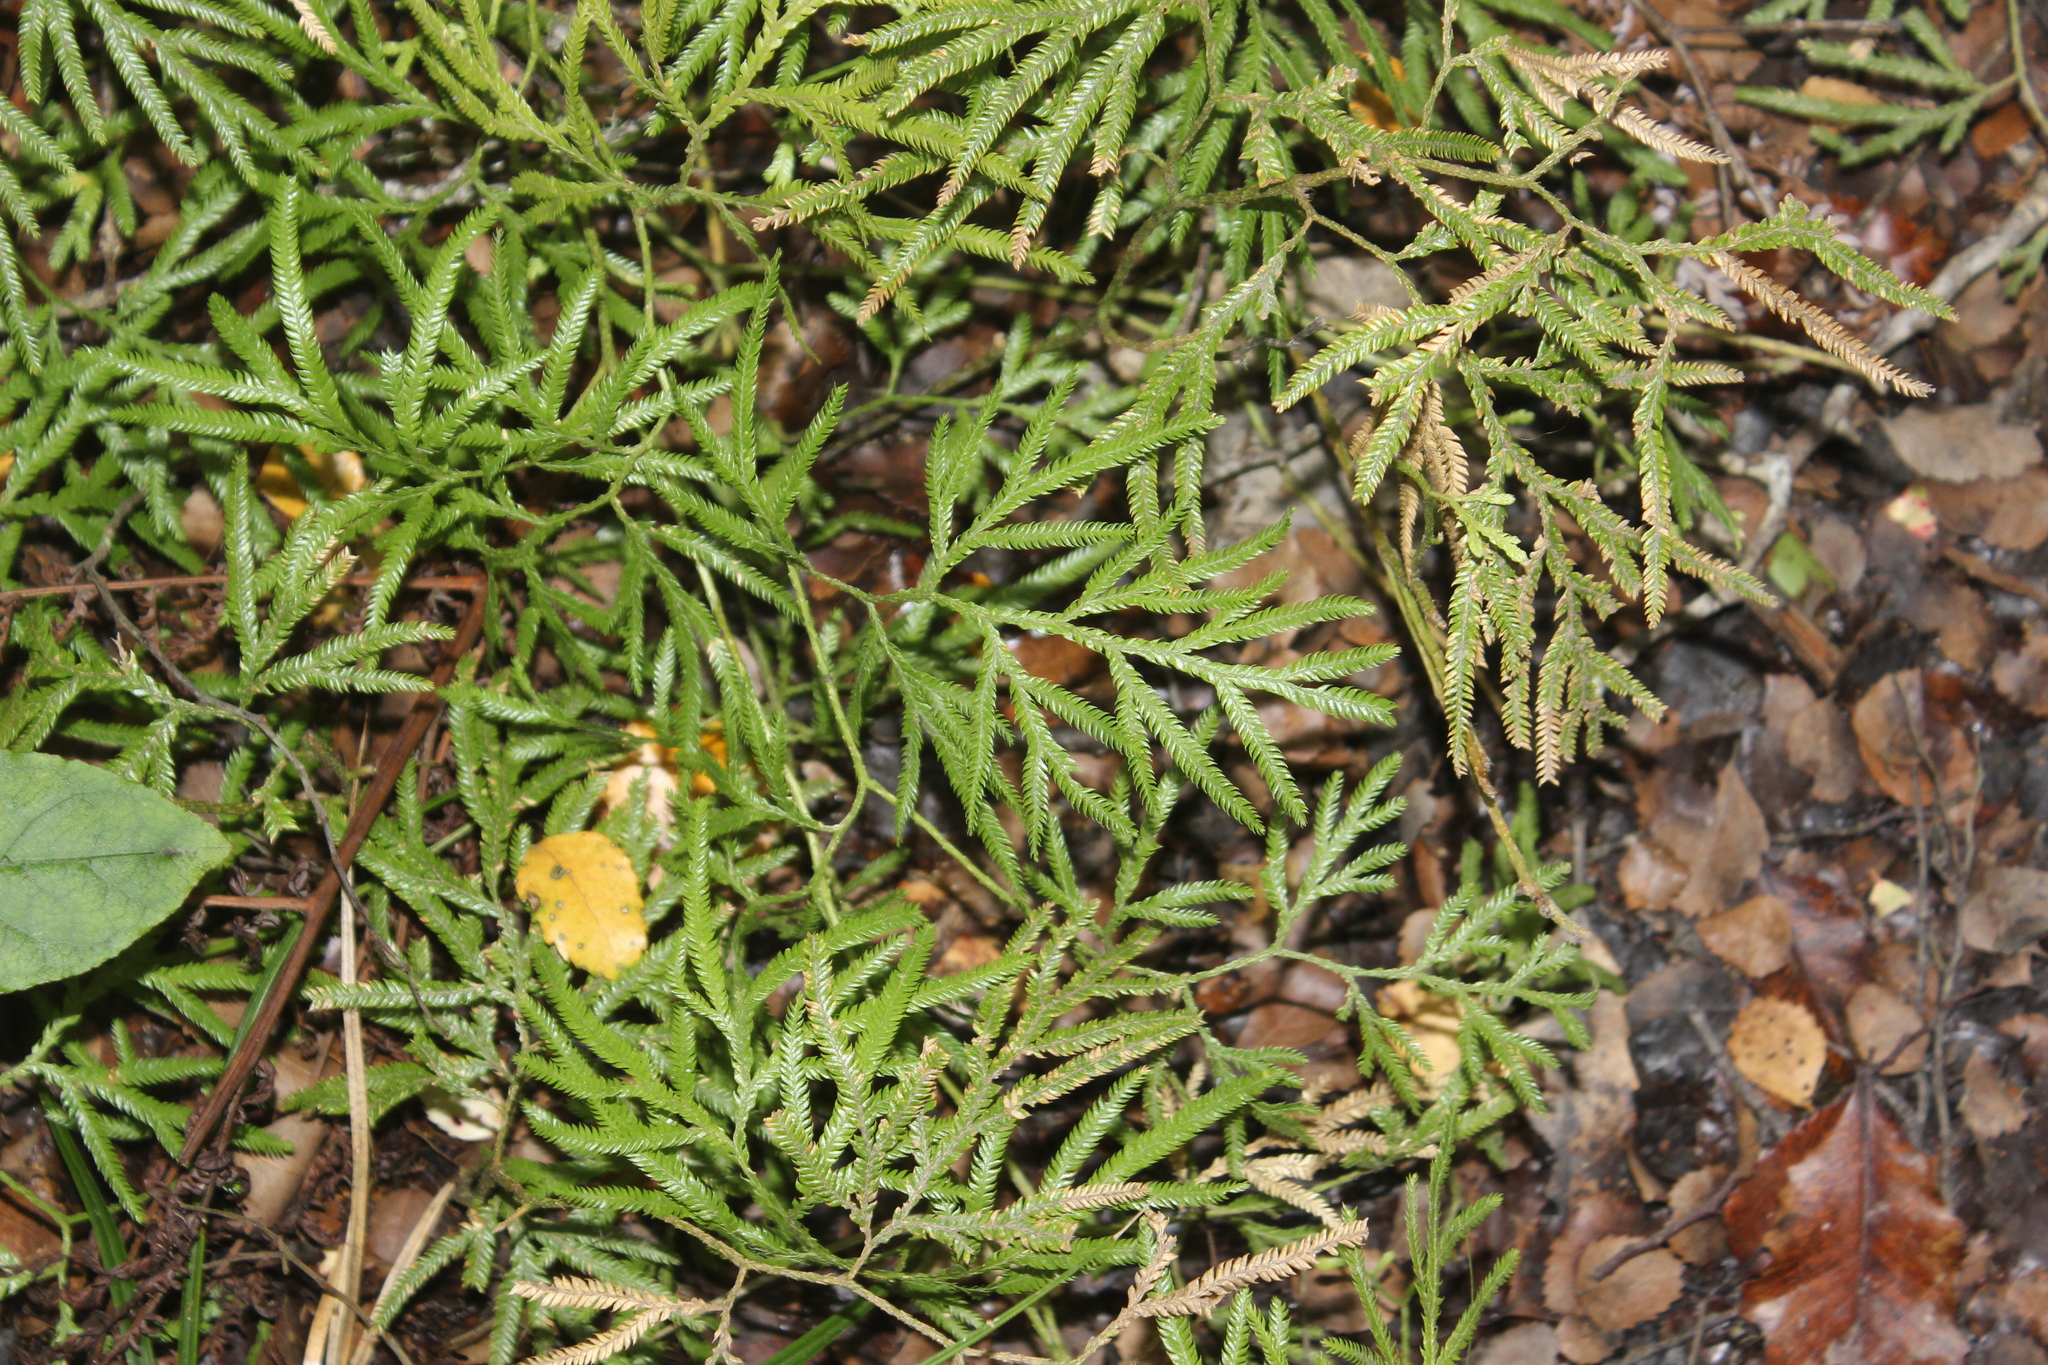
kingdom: Plantae
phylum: Tracheophyta
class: Lycopodiopsida
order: Lycopodiales
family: Lycopodiaceae
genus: Lycopodium
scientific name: Lycopodium volubile
